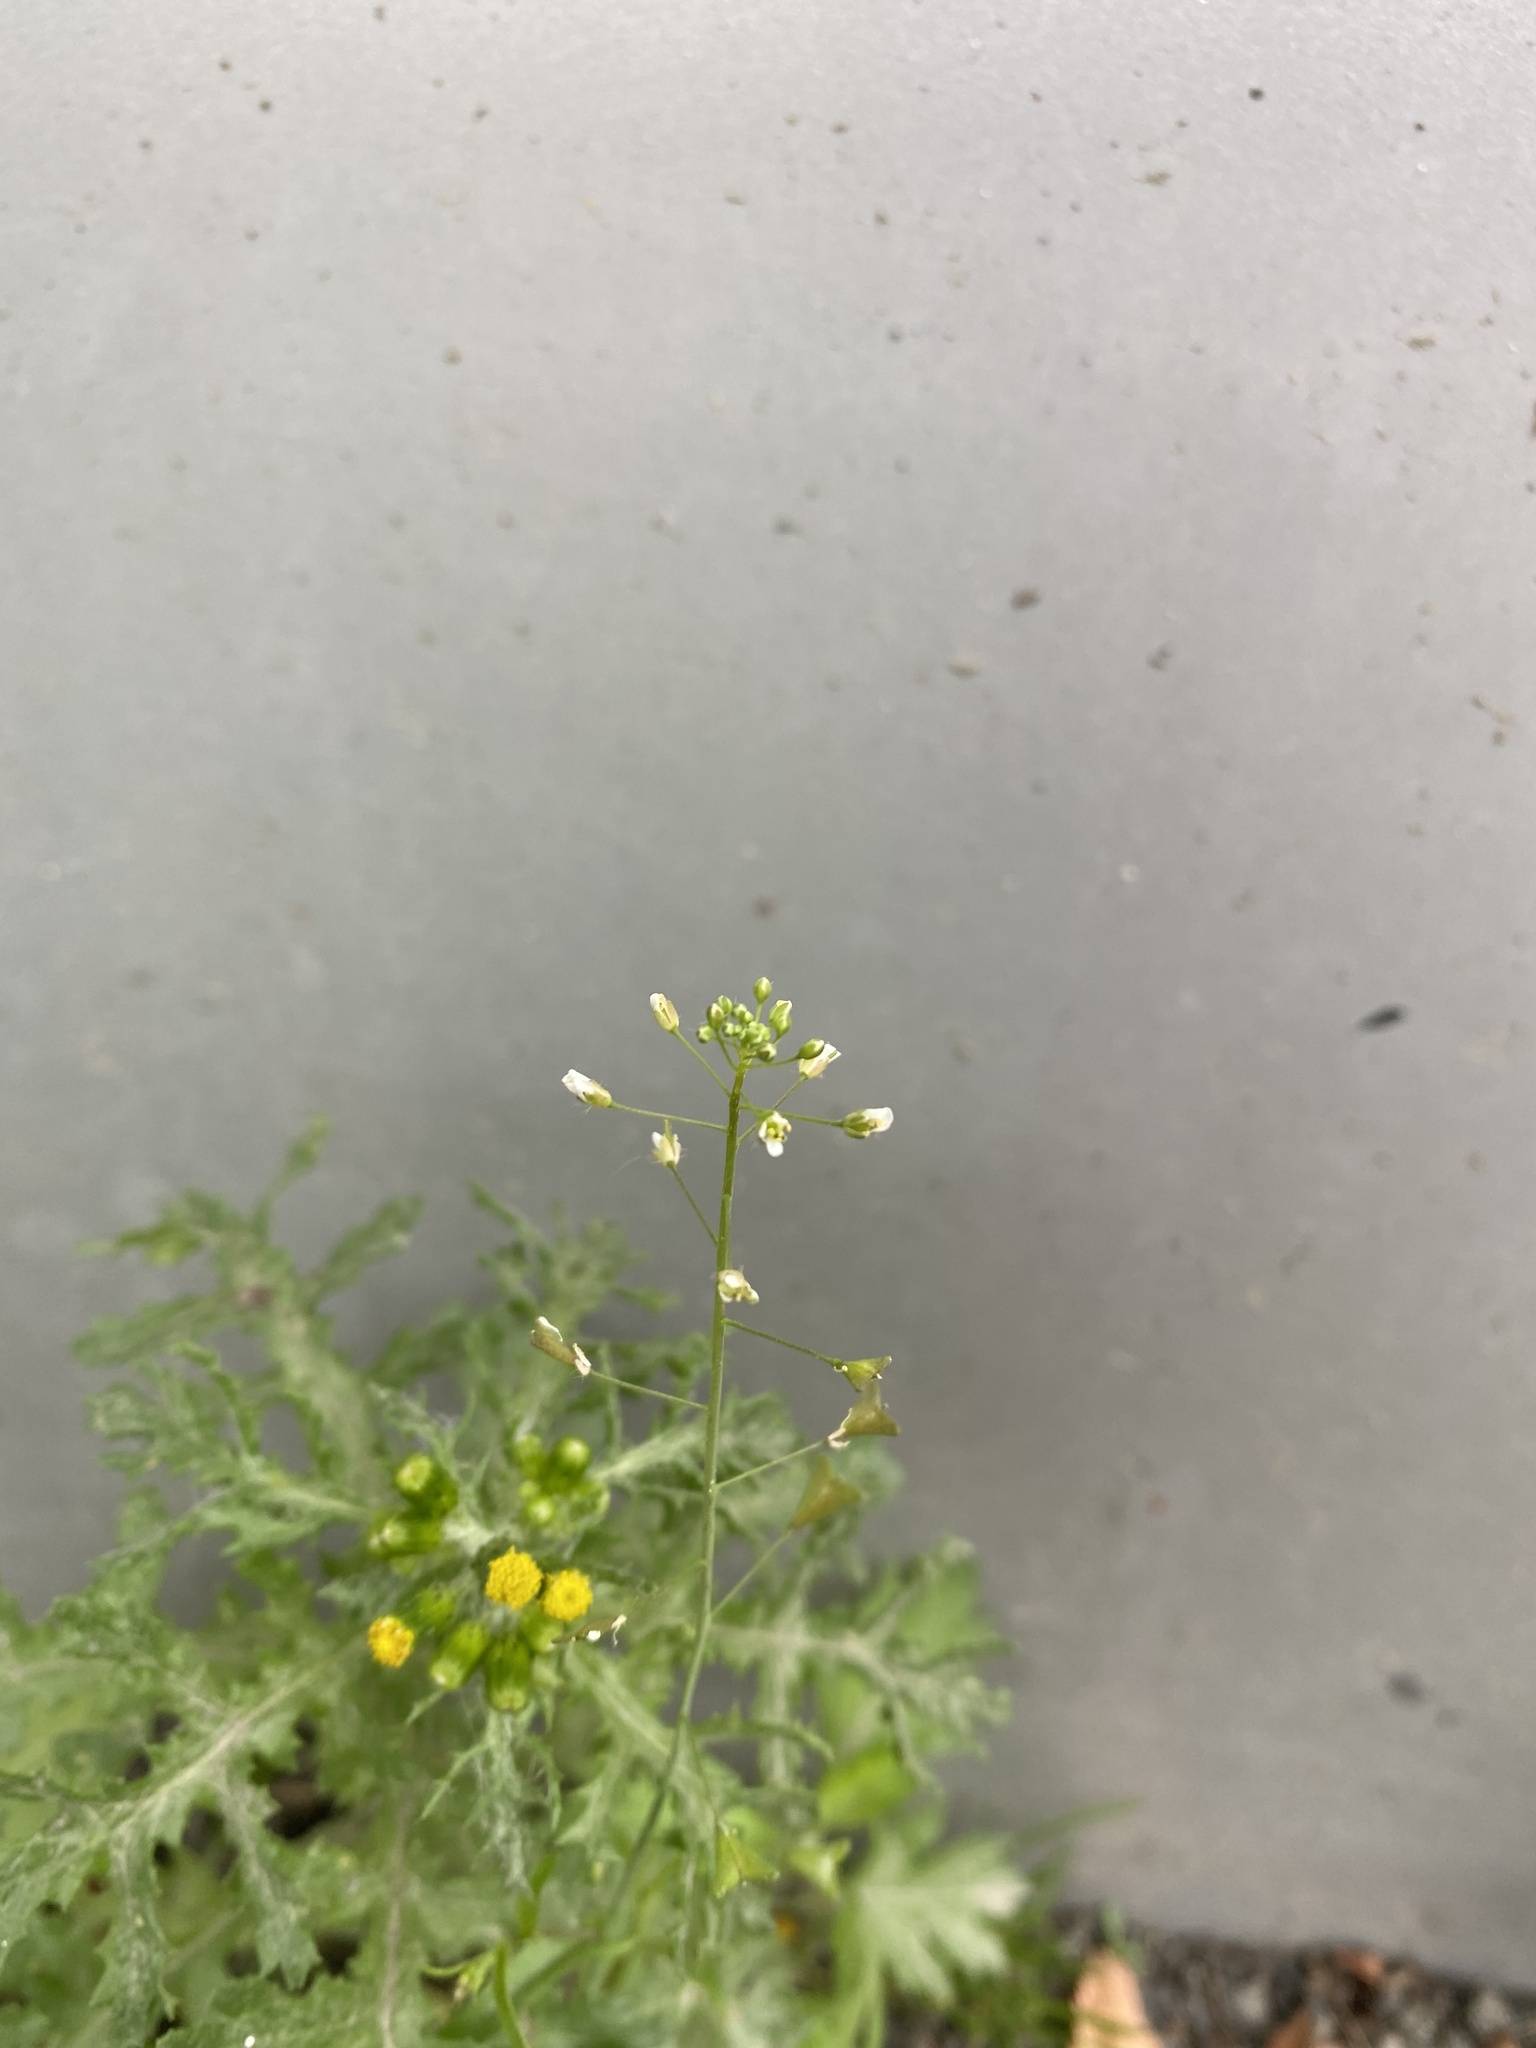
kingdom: Plantae
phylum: Tracheophyta
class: Magnoliopsida
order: Brassicales
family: Brassicaceae
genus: Capsella
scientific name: Capsella bursa-pastoris
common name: Shepherd's purse
